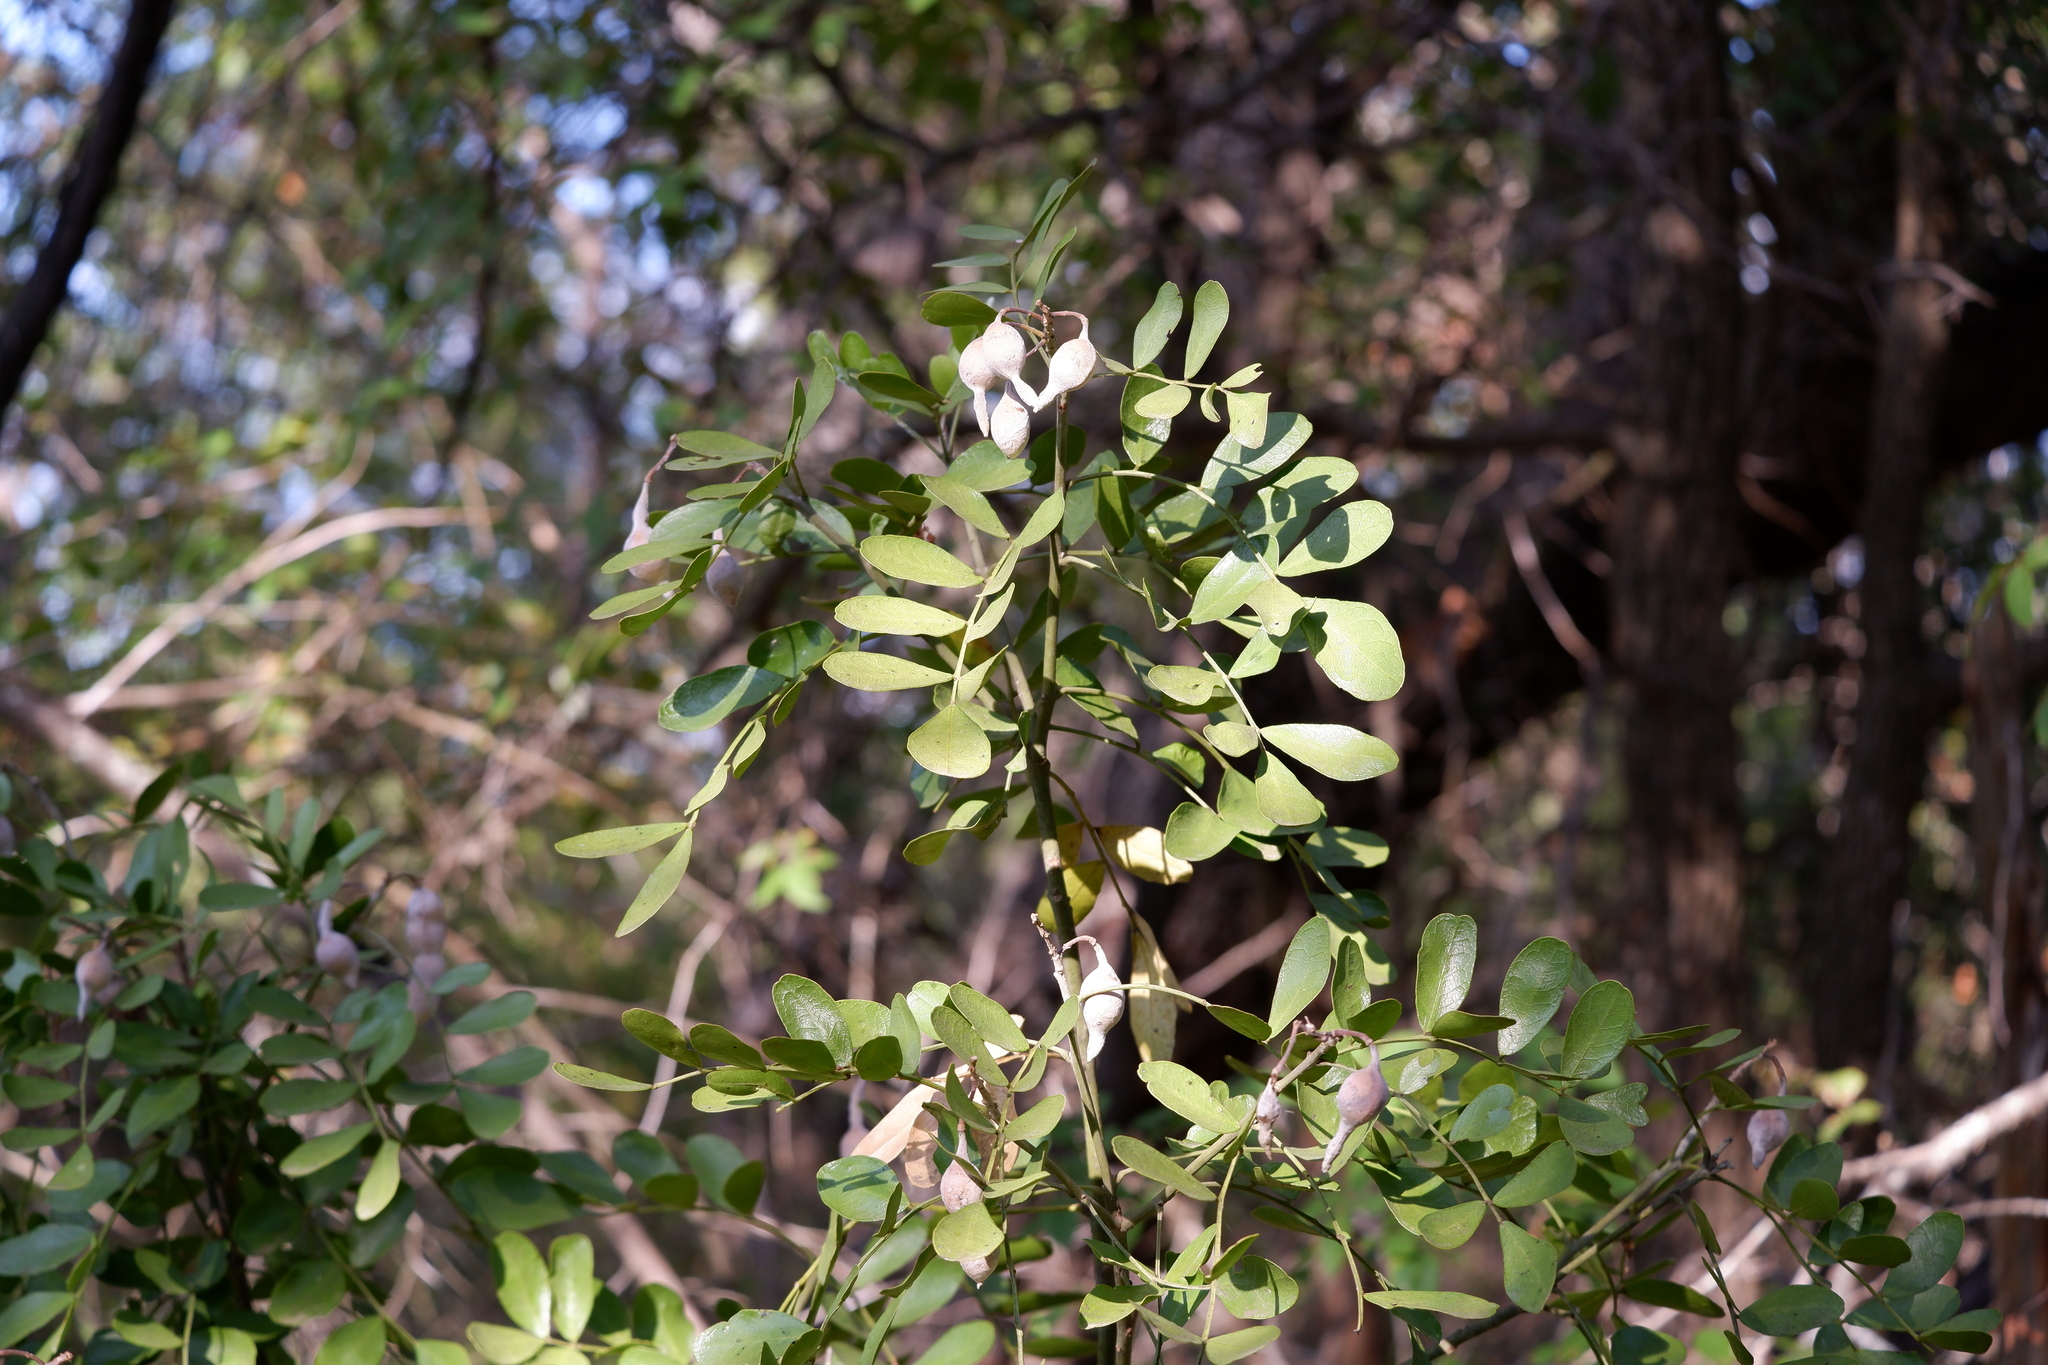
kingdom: Plantae
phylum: Tracheophyta
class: Magnoliopsida
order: Fabales
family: Fabaceae
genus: Dermatophyllum
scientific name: Dermatophyllum secundiflorum
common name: Texas-mountain-laurel
